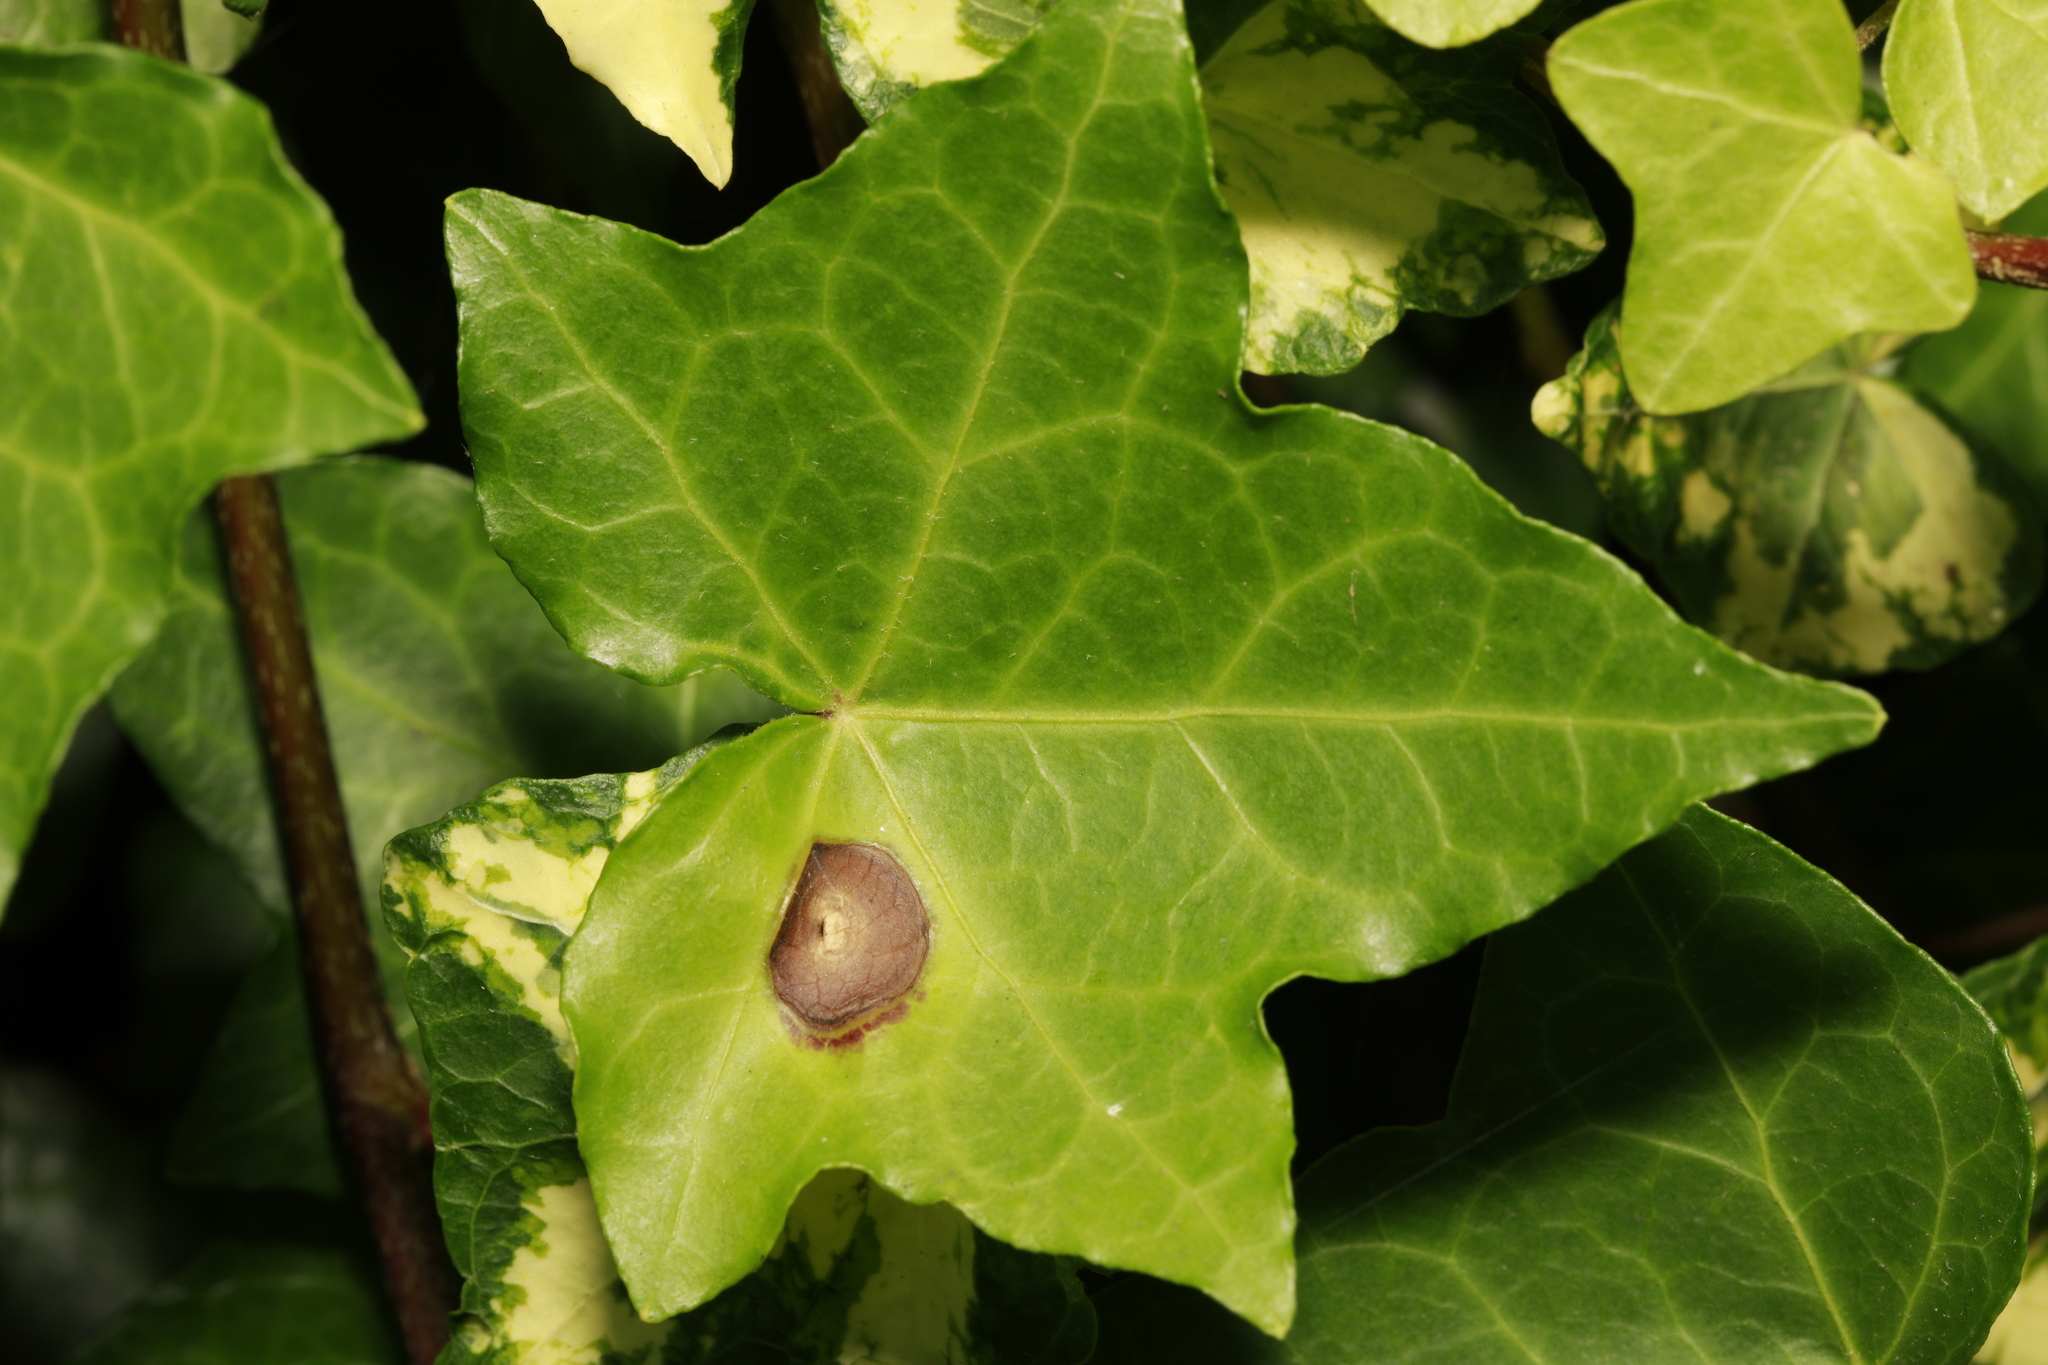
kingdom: Fungi
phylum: Ascomycota
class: Dothideomycetes
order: Pleosporales
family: Didymellaceae
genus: Boeremia
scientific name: Boeremia hedericola
